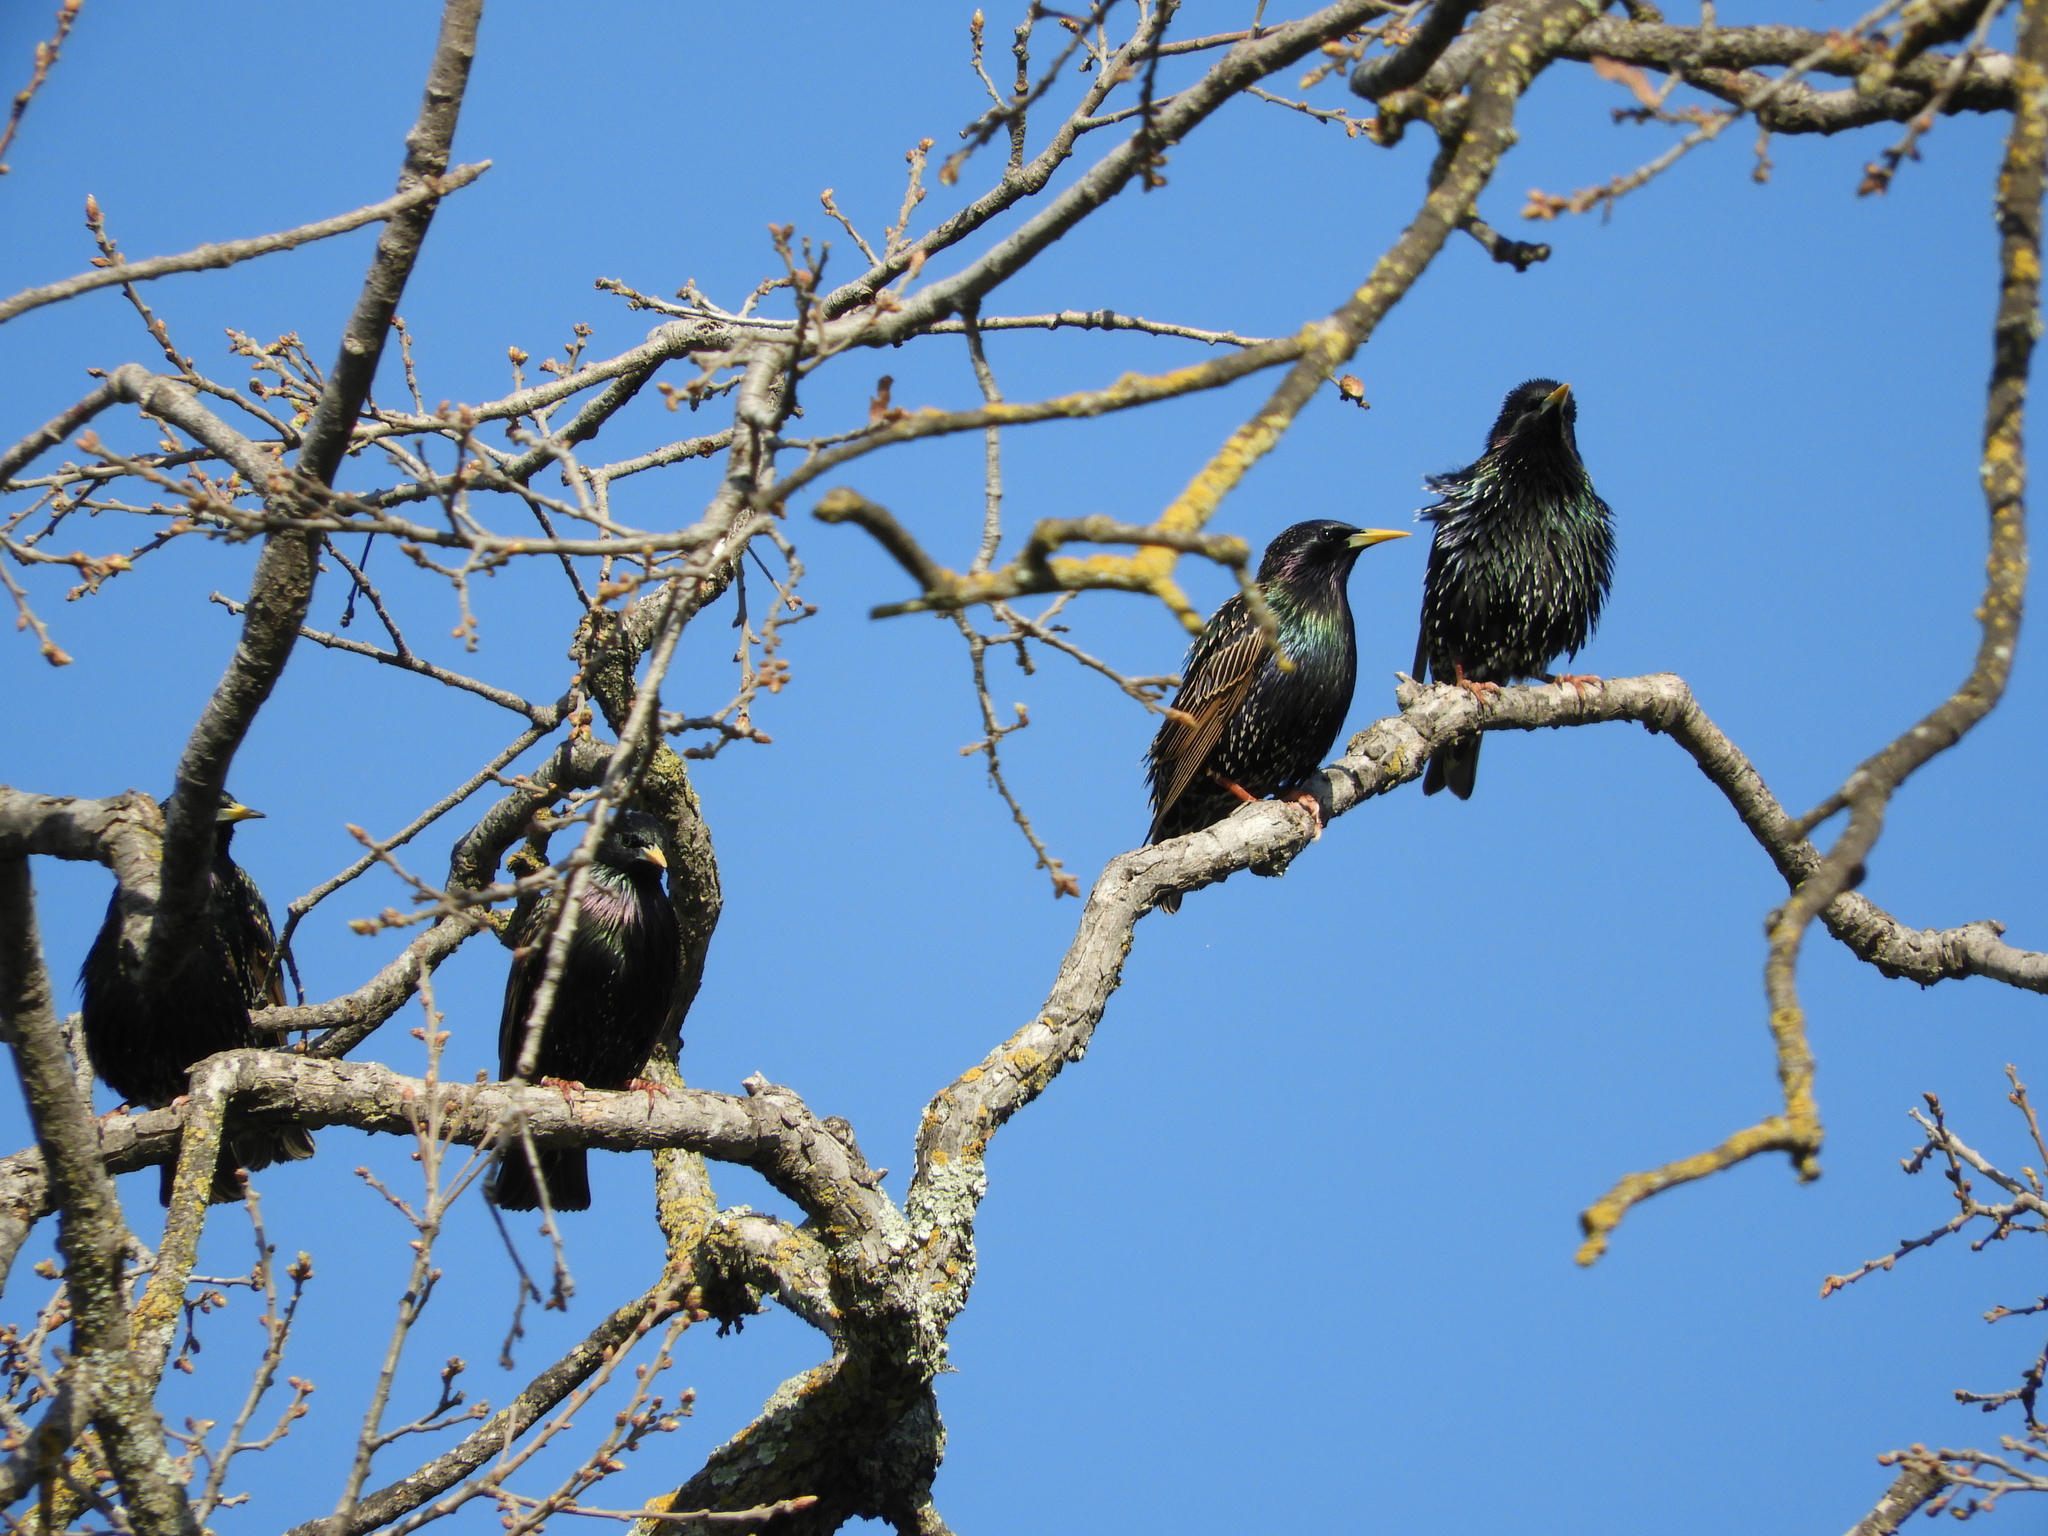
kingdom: Animalia
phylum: Chordata
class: Aves
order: Passeriformes
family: Sturnidae
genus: Sturnus
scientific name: Sturnus vulgaris
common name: Common starling
